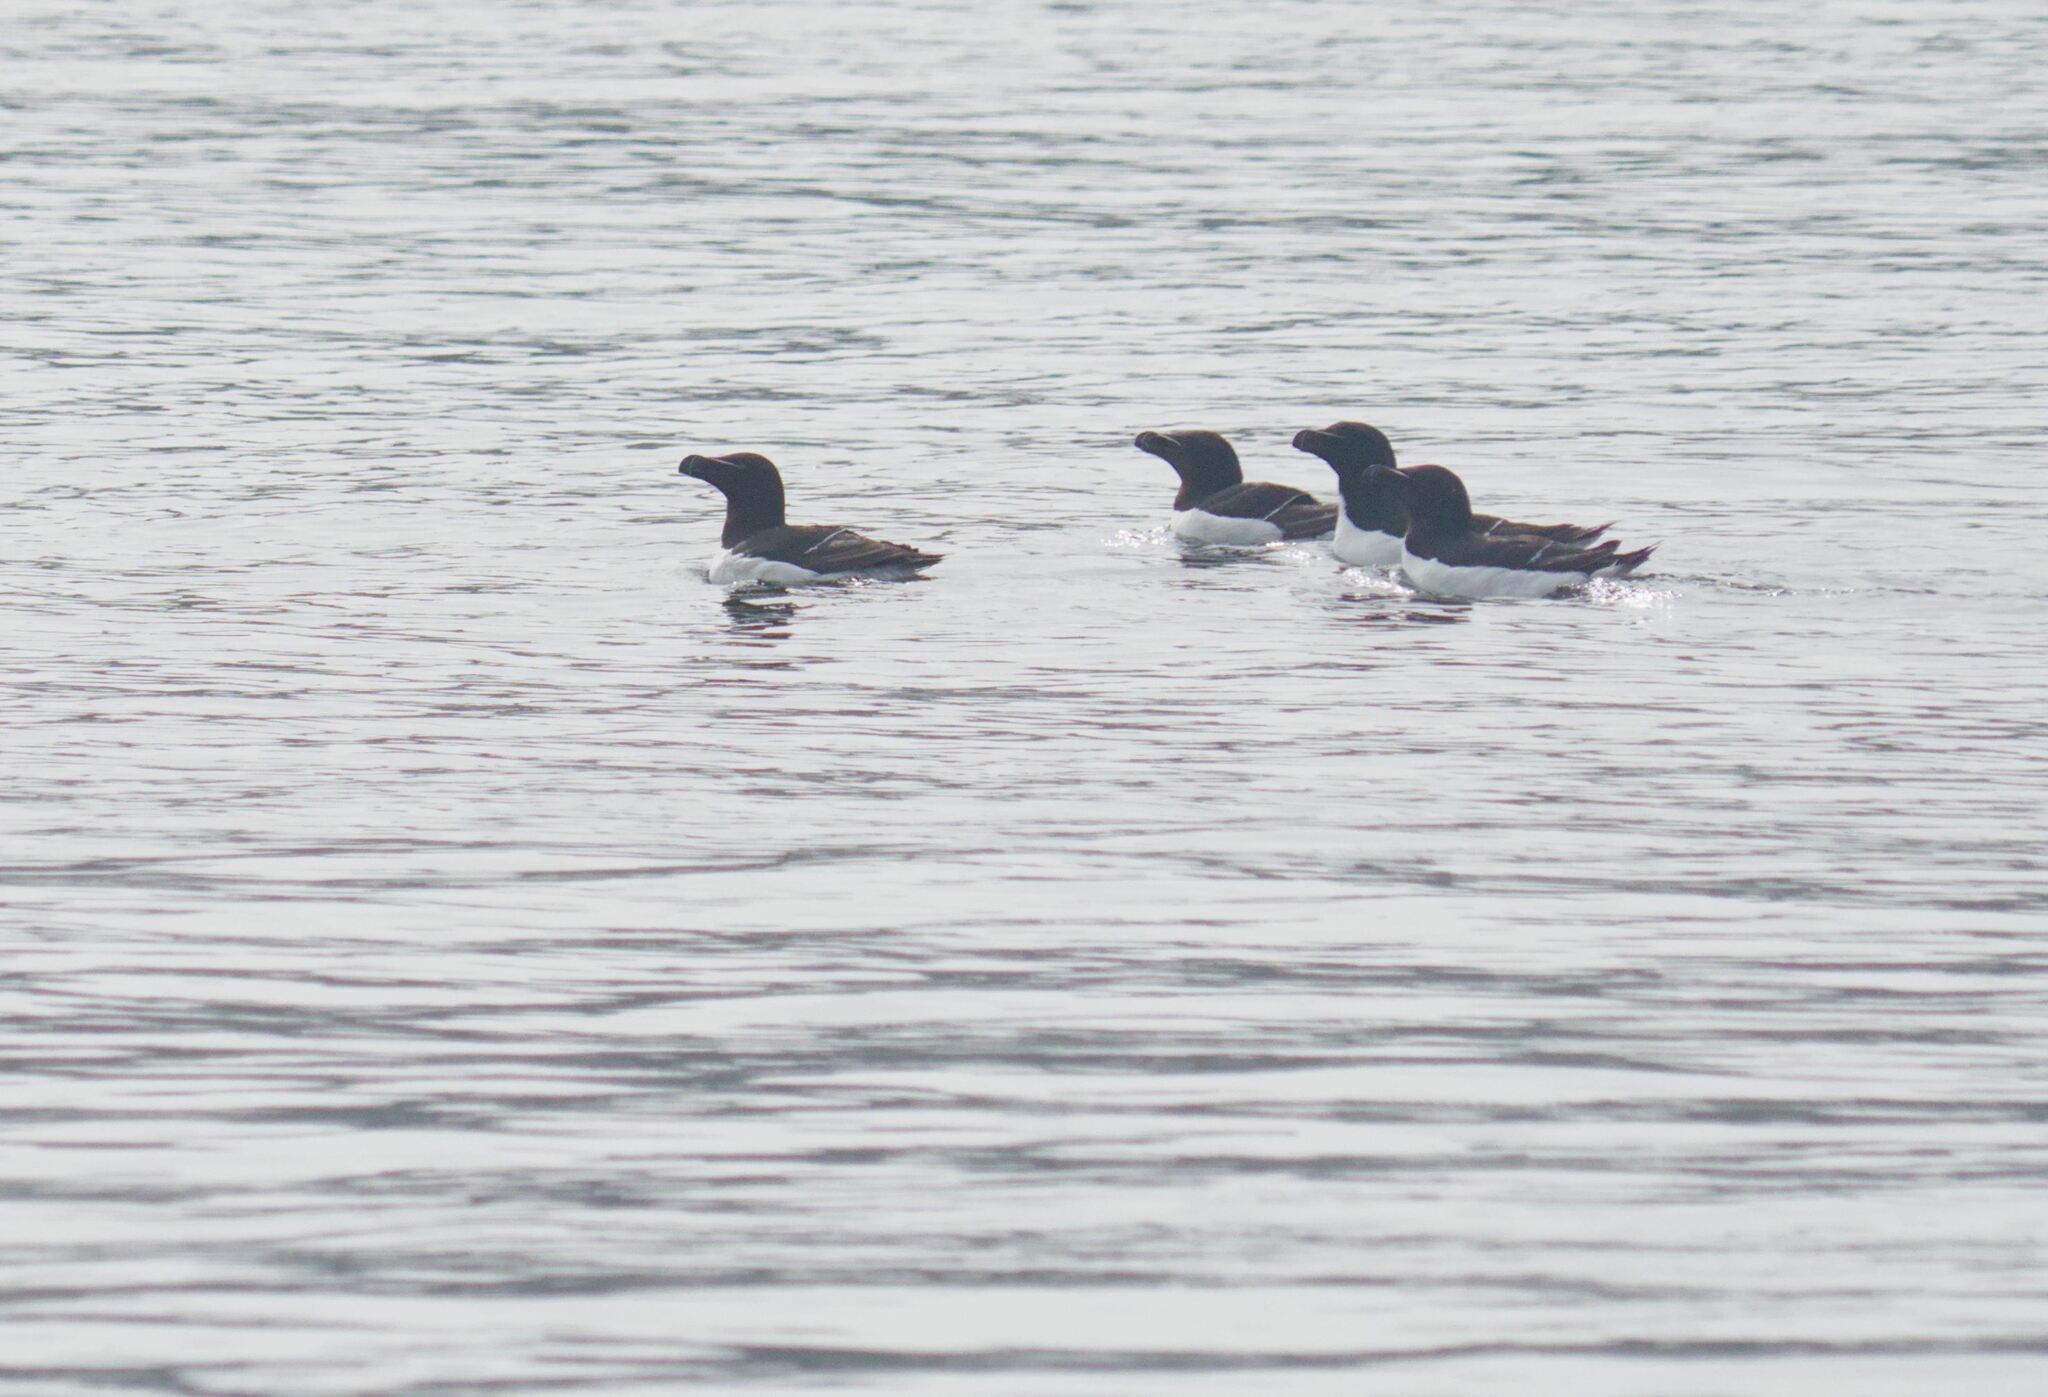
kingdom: Animalia
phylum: Chordata
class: Aves
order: Charadriiformes
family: Alcidae
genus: Alca
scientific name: Alca torda
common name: Razorbill
